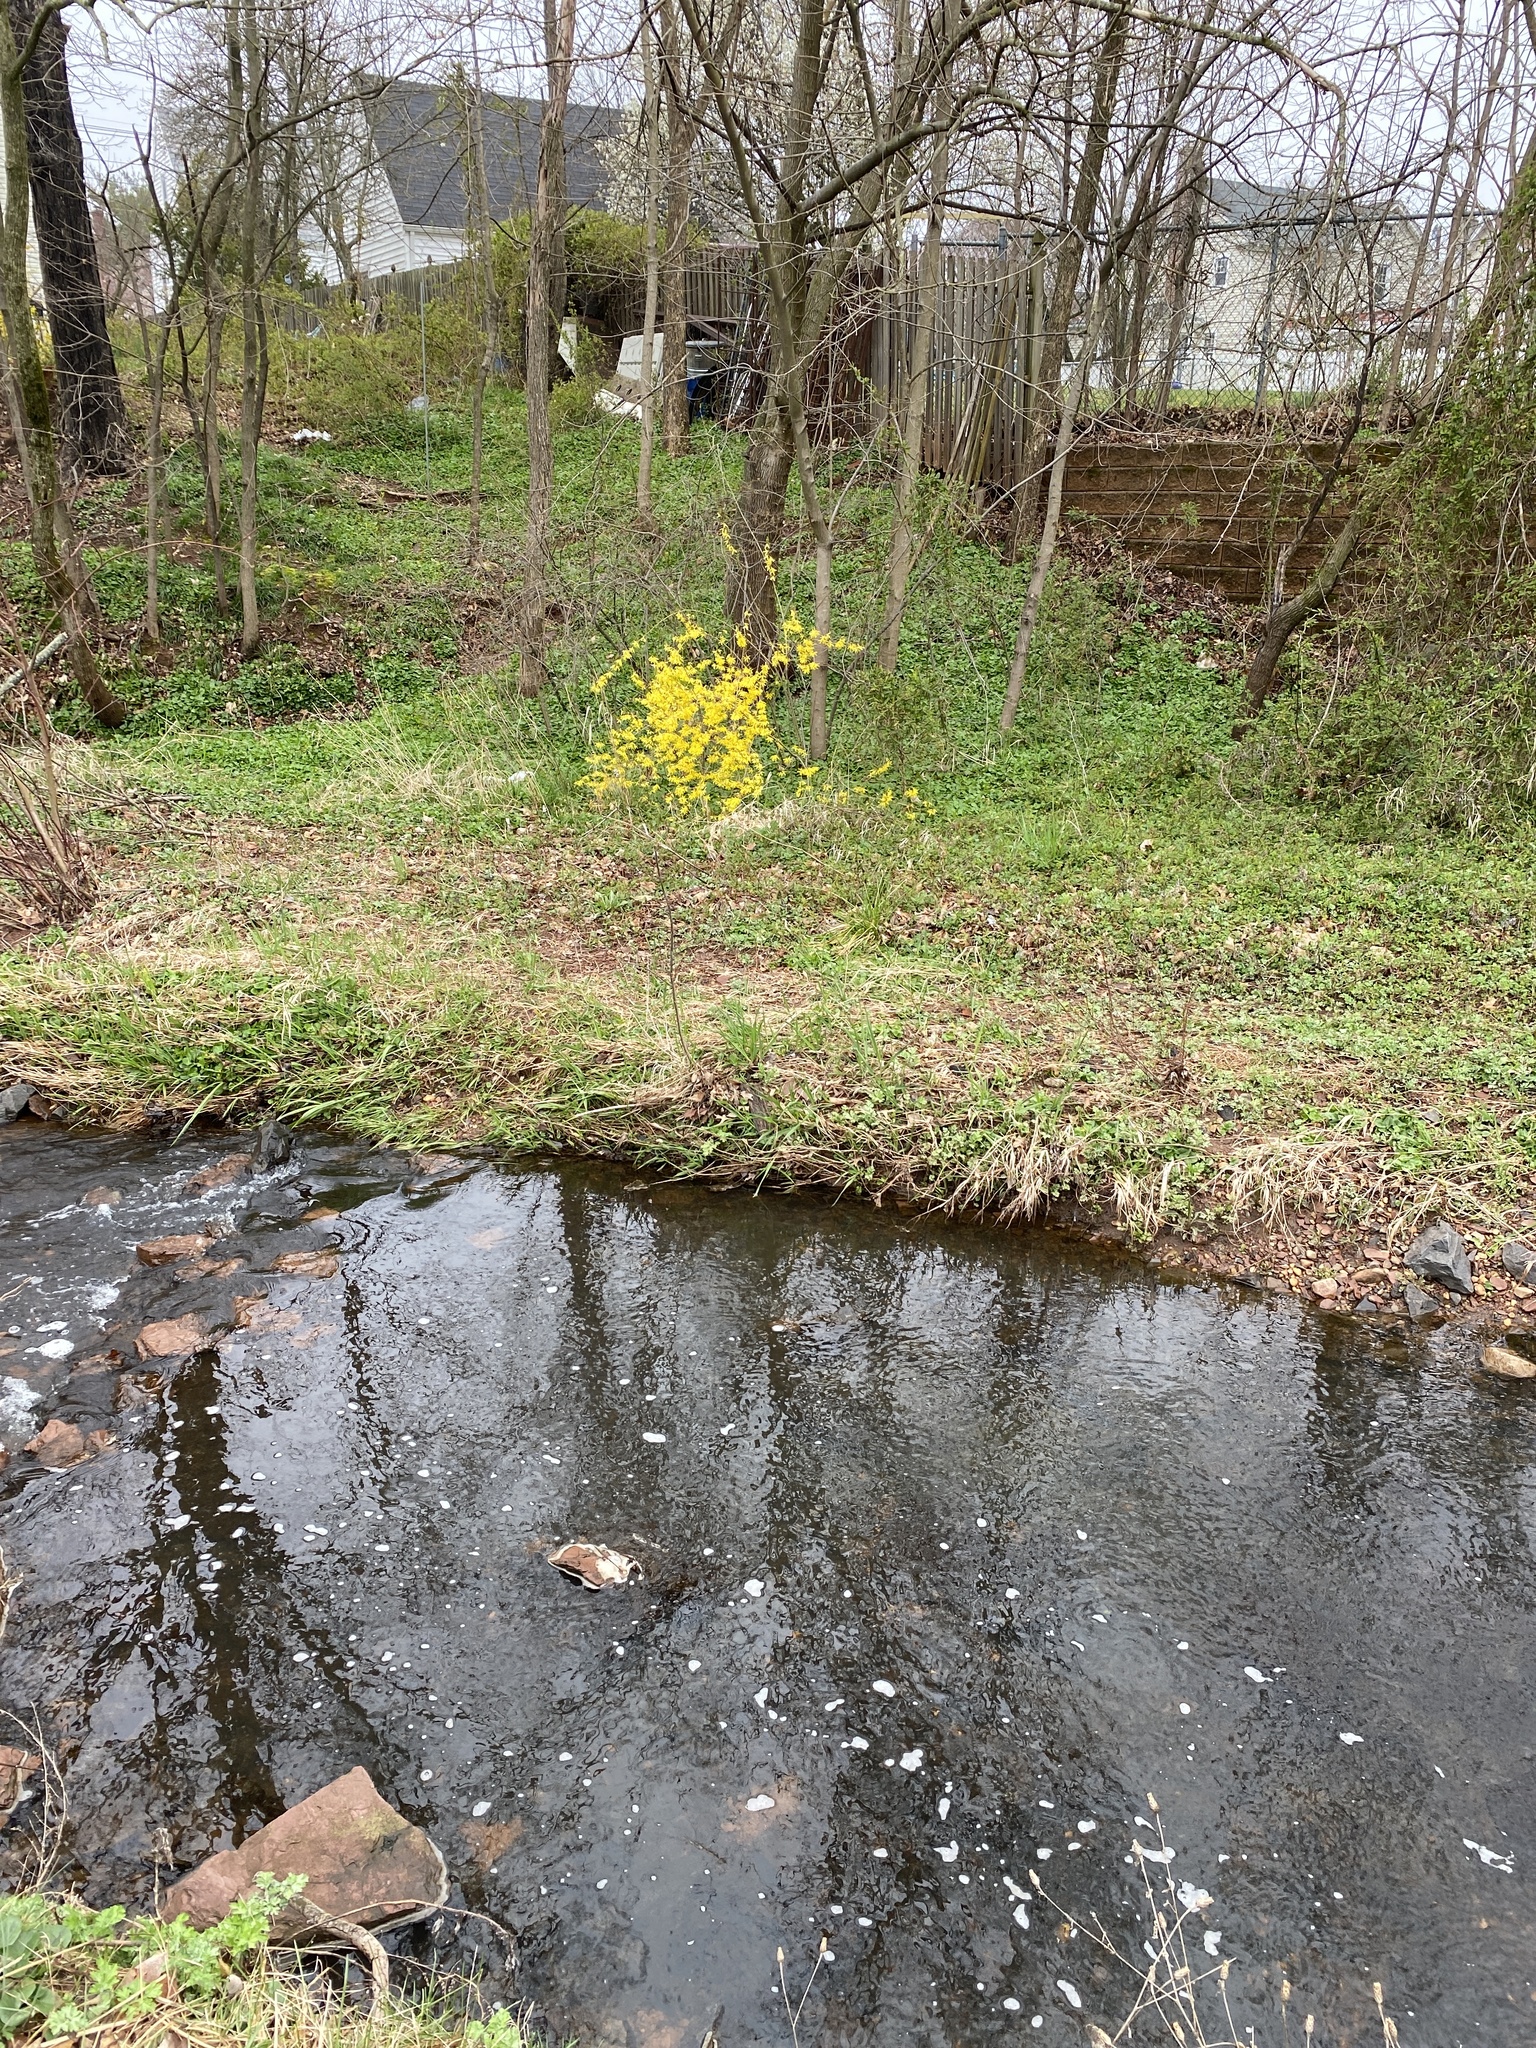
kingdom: Plantae
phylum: Tracheophyta
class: Magnoliopsida
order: Lamiales
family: Oleaceae
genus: Forsythia
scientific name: Forsythia
